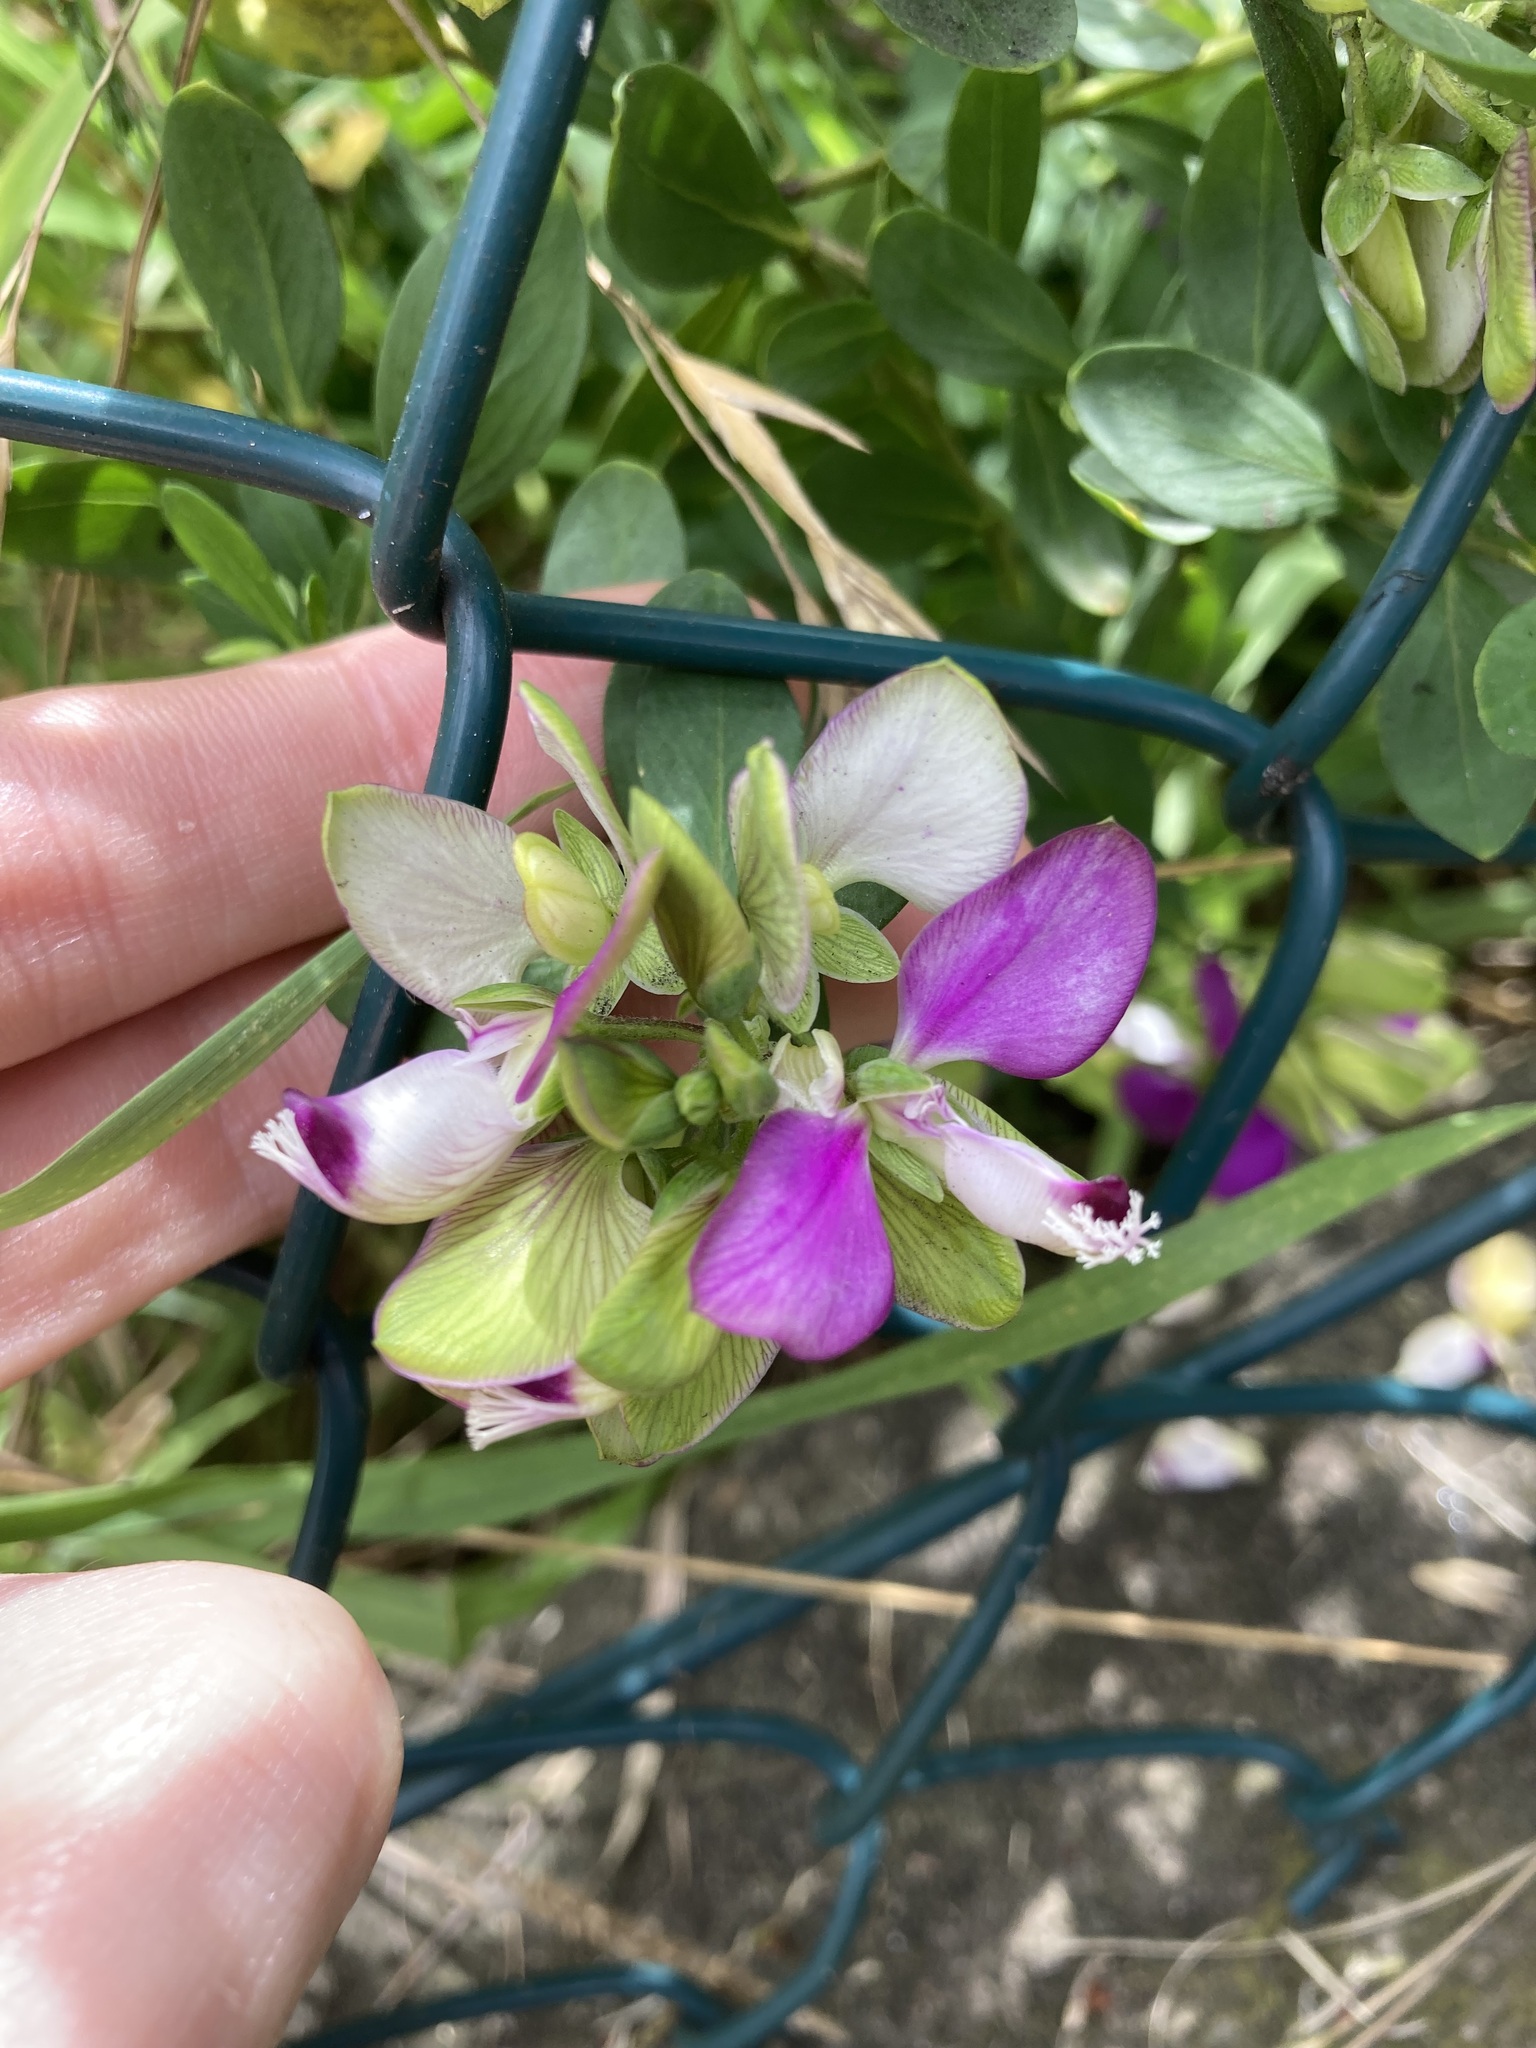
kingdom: Plantae
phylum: Tracheophyta
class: Magnoliopsida
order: Fabales
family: Polygalaceae
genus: Polygala
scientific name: Polygala myrtifolia
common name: Myrtle-leaf milkwort
